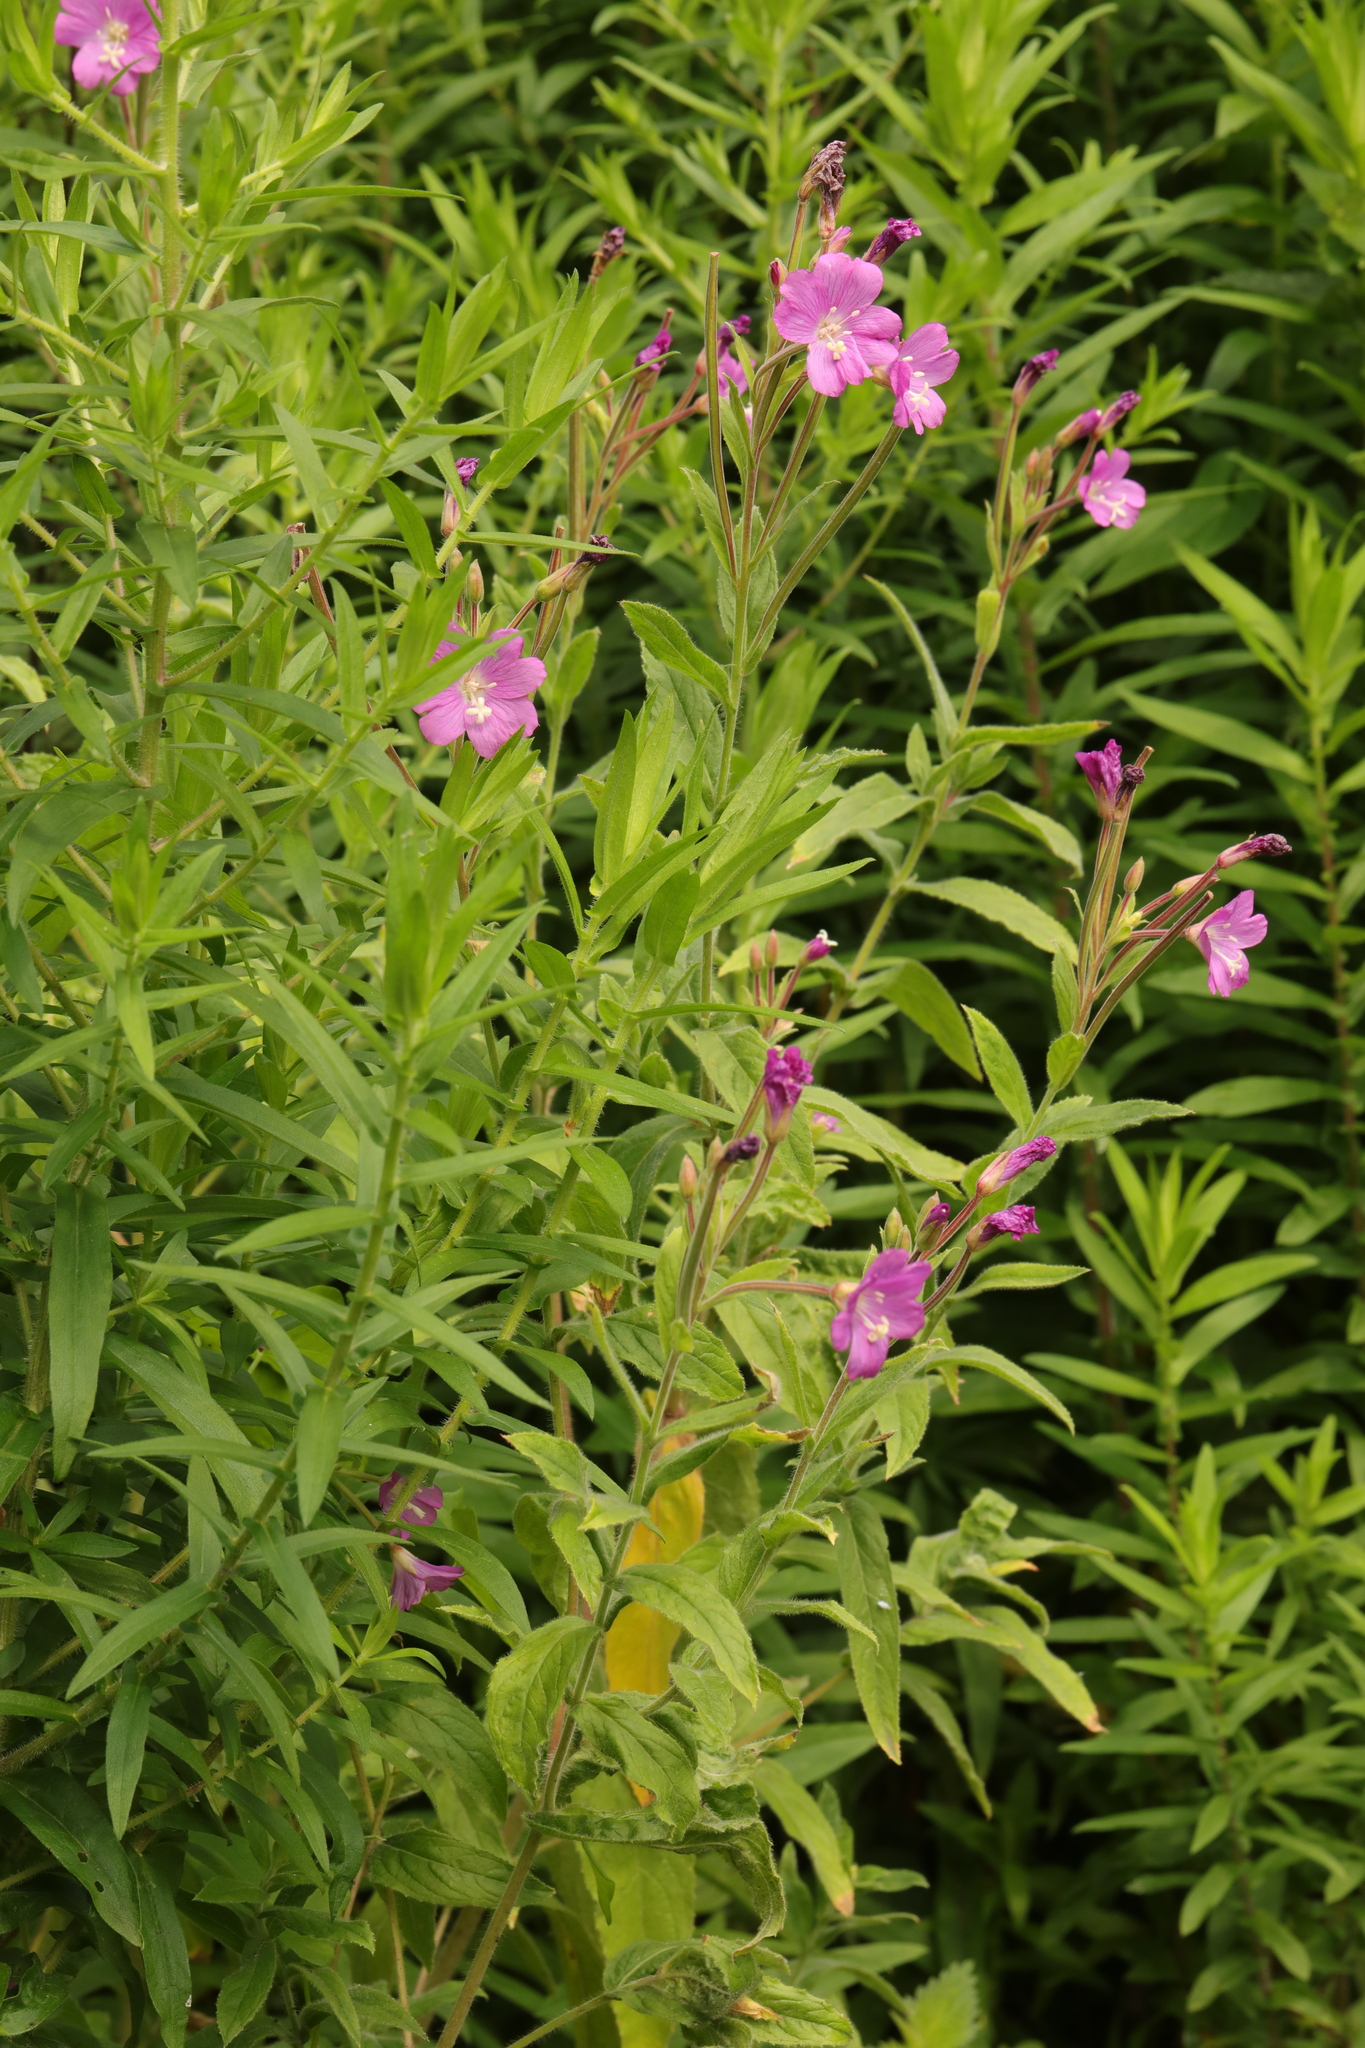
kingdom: Plantae
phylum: Tracheophyta
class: Magnoliopsida
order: Myrtales
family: Onagraceae
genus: Epilobium
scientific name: Epilobium hirsutum
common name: Great willowherb
